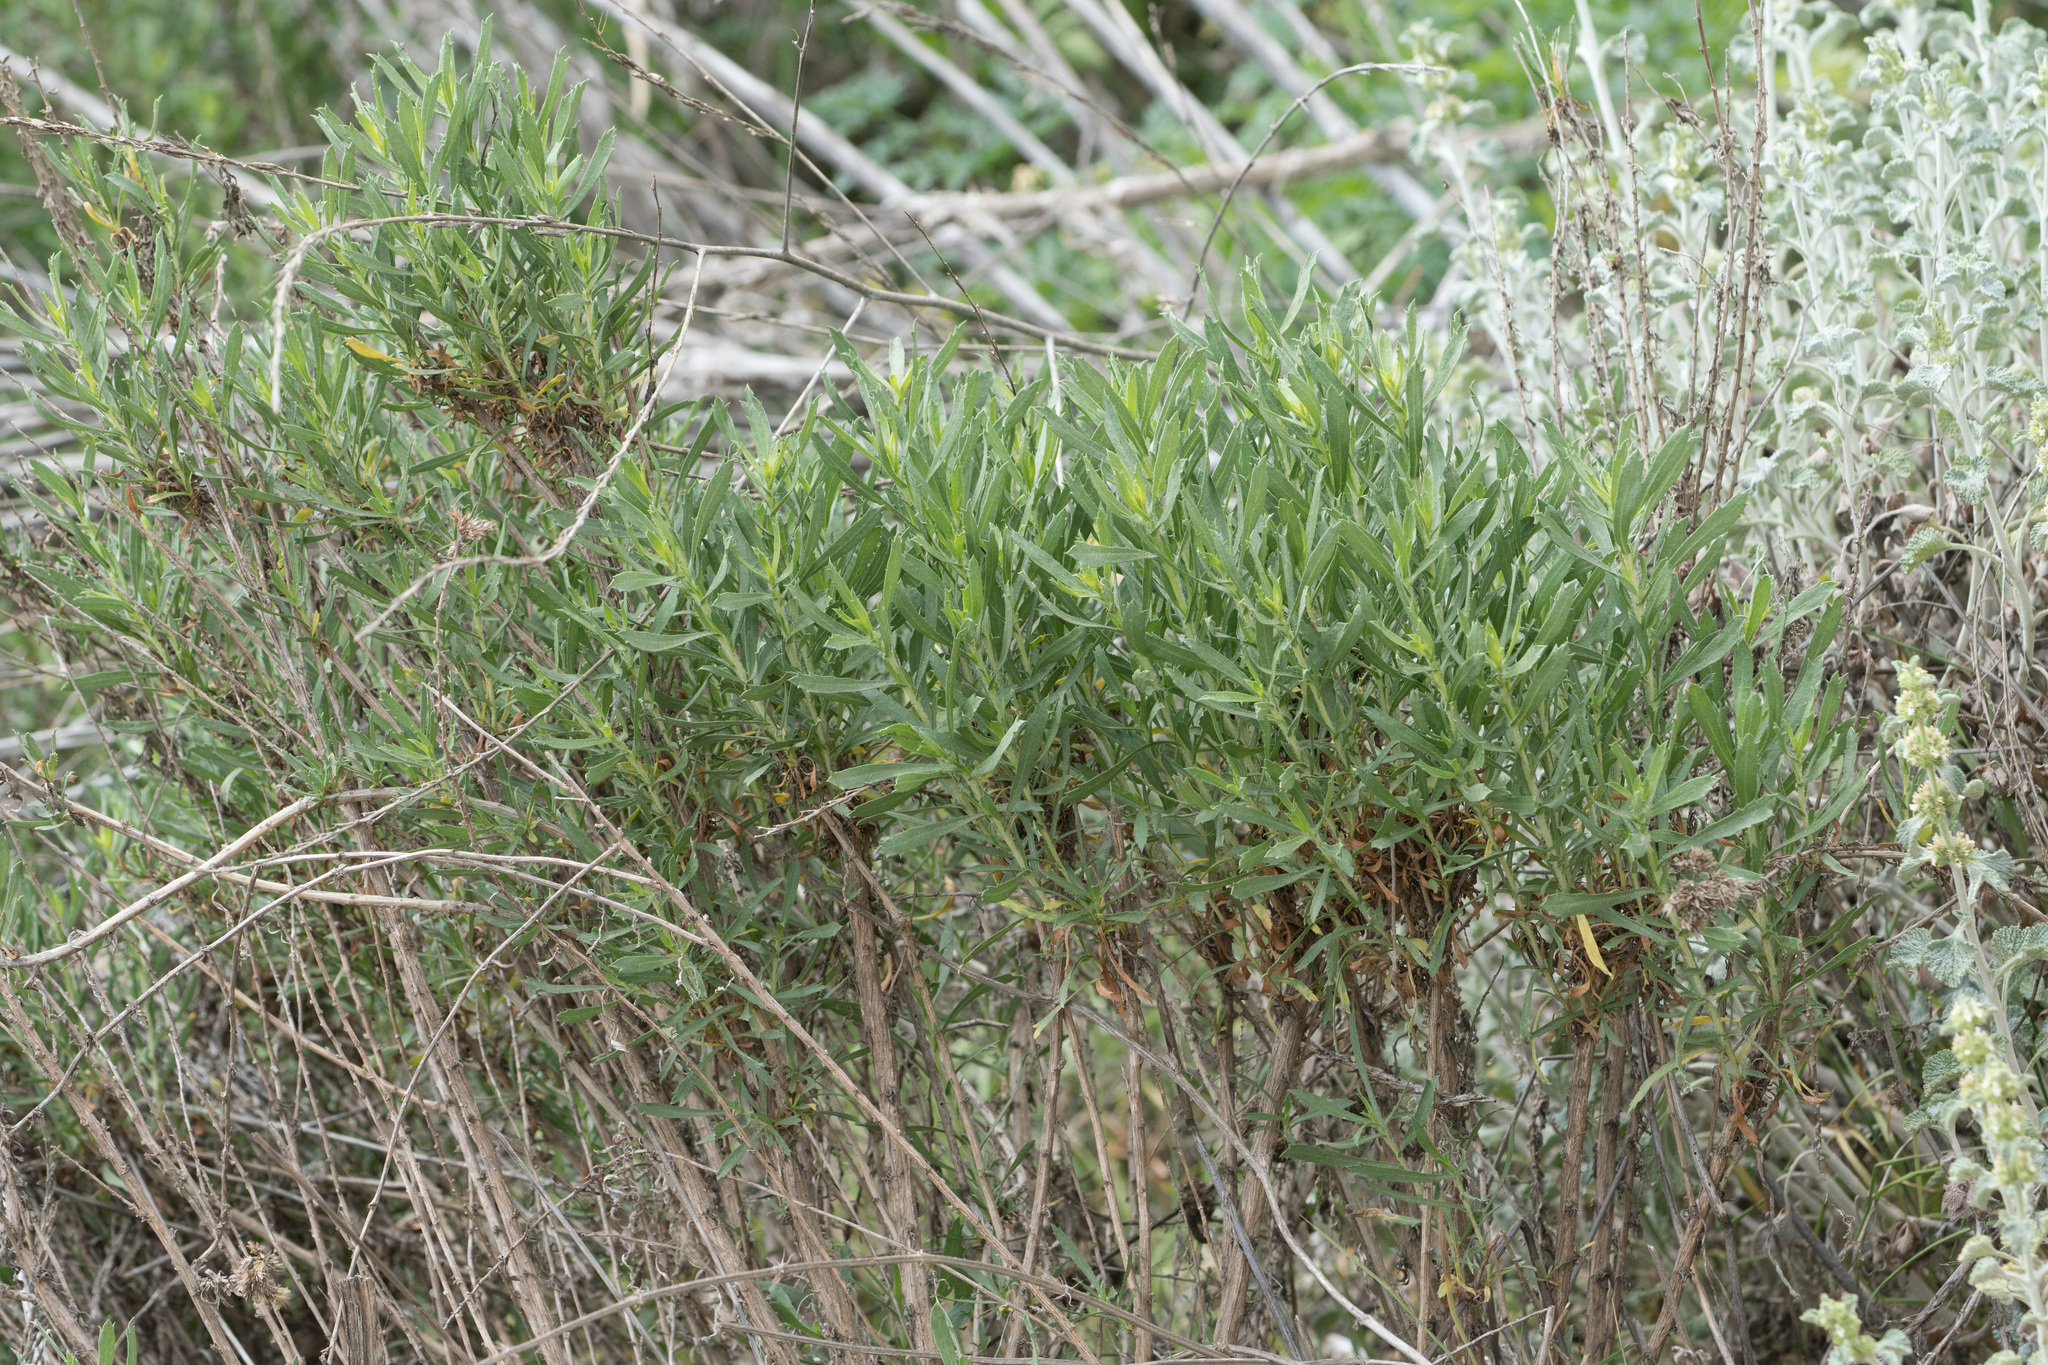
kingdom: Plantae
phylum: Tracheophyta
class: Magnoliopsida
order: Asterales
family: Asteraceae
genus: Isocoma
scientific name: Isocoma menziesii
